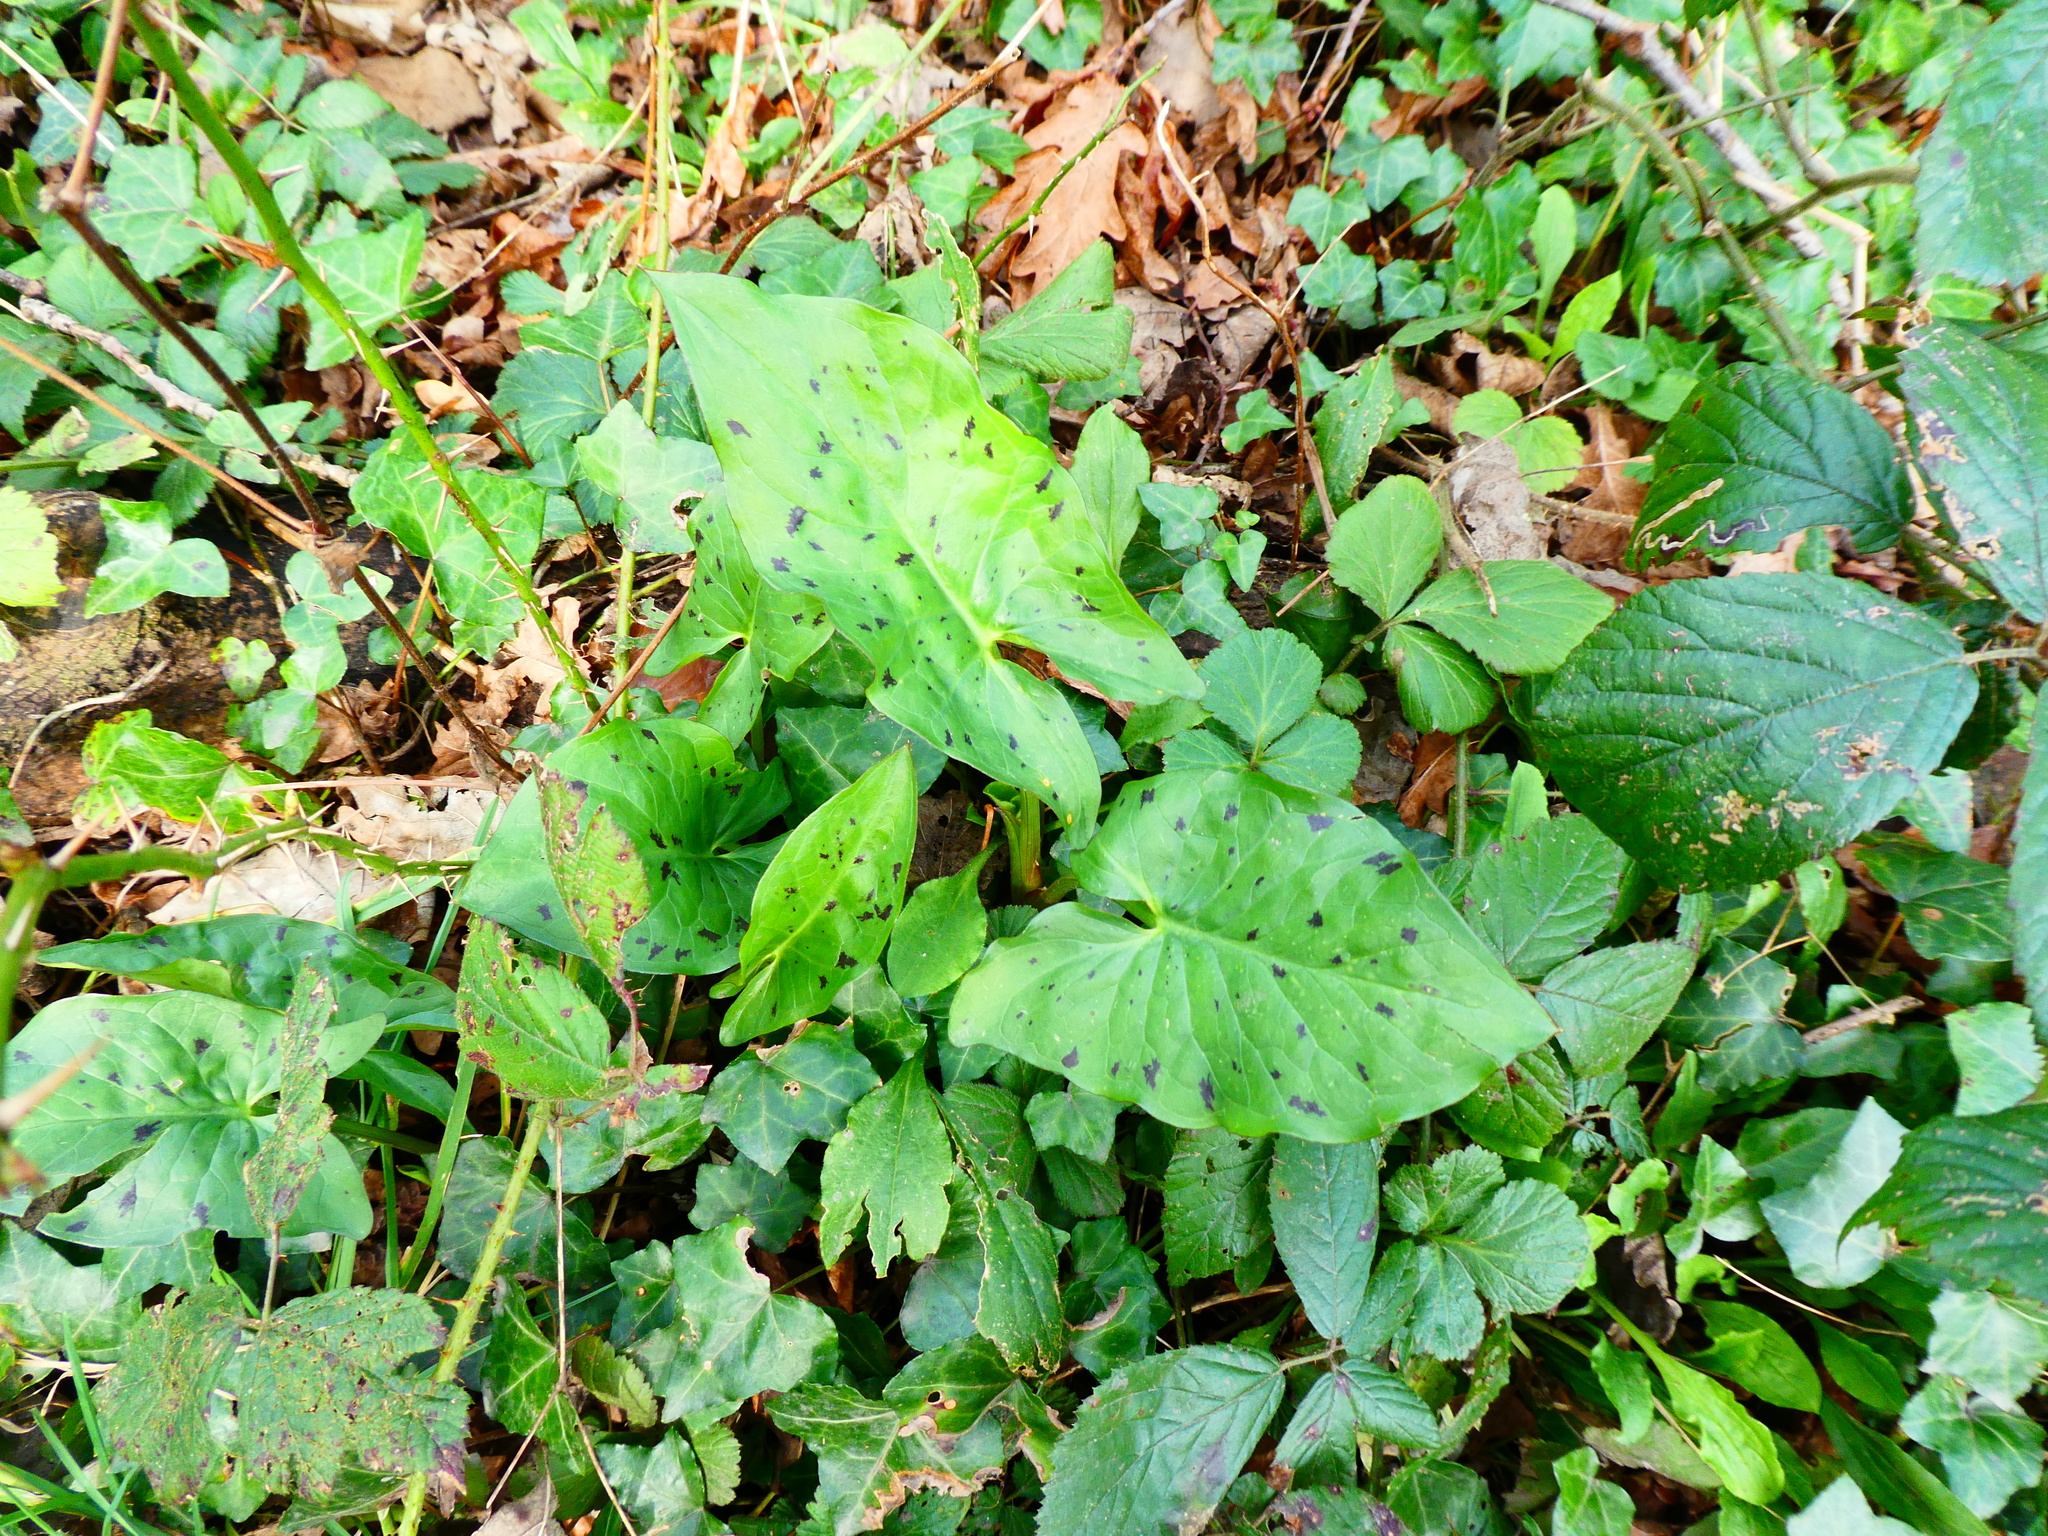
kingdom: Plantae
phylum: Tracheophyta
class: Liliopsida
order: Alismatales
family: Araceae
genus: Arum
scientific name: Arum maculatum
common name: Lords-and-ladies
